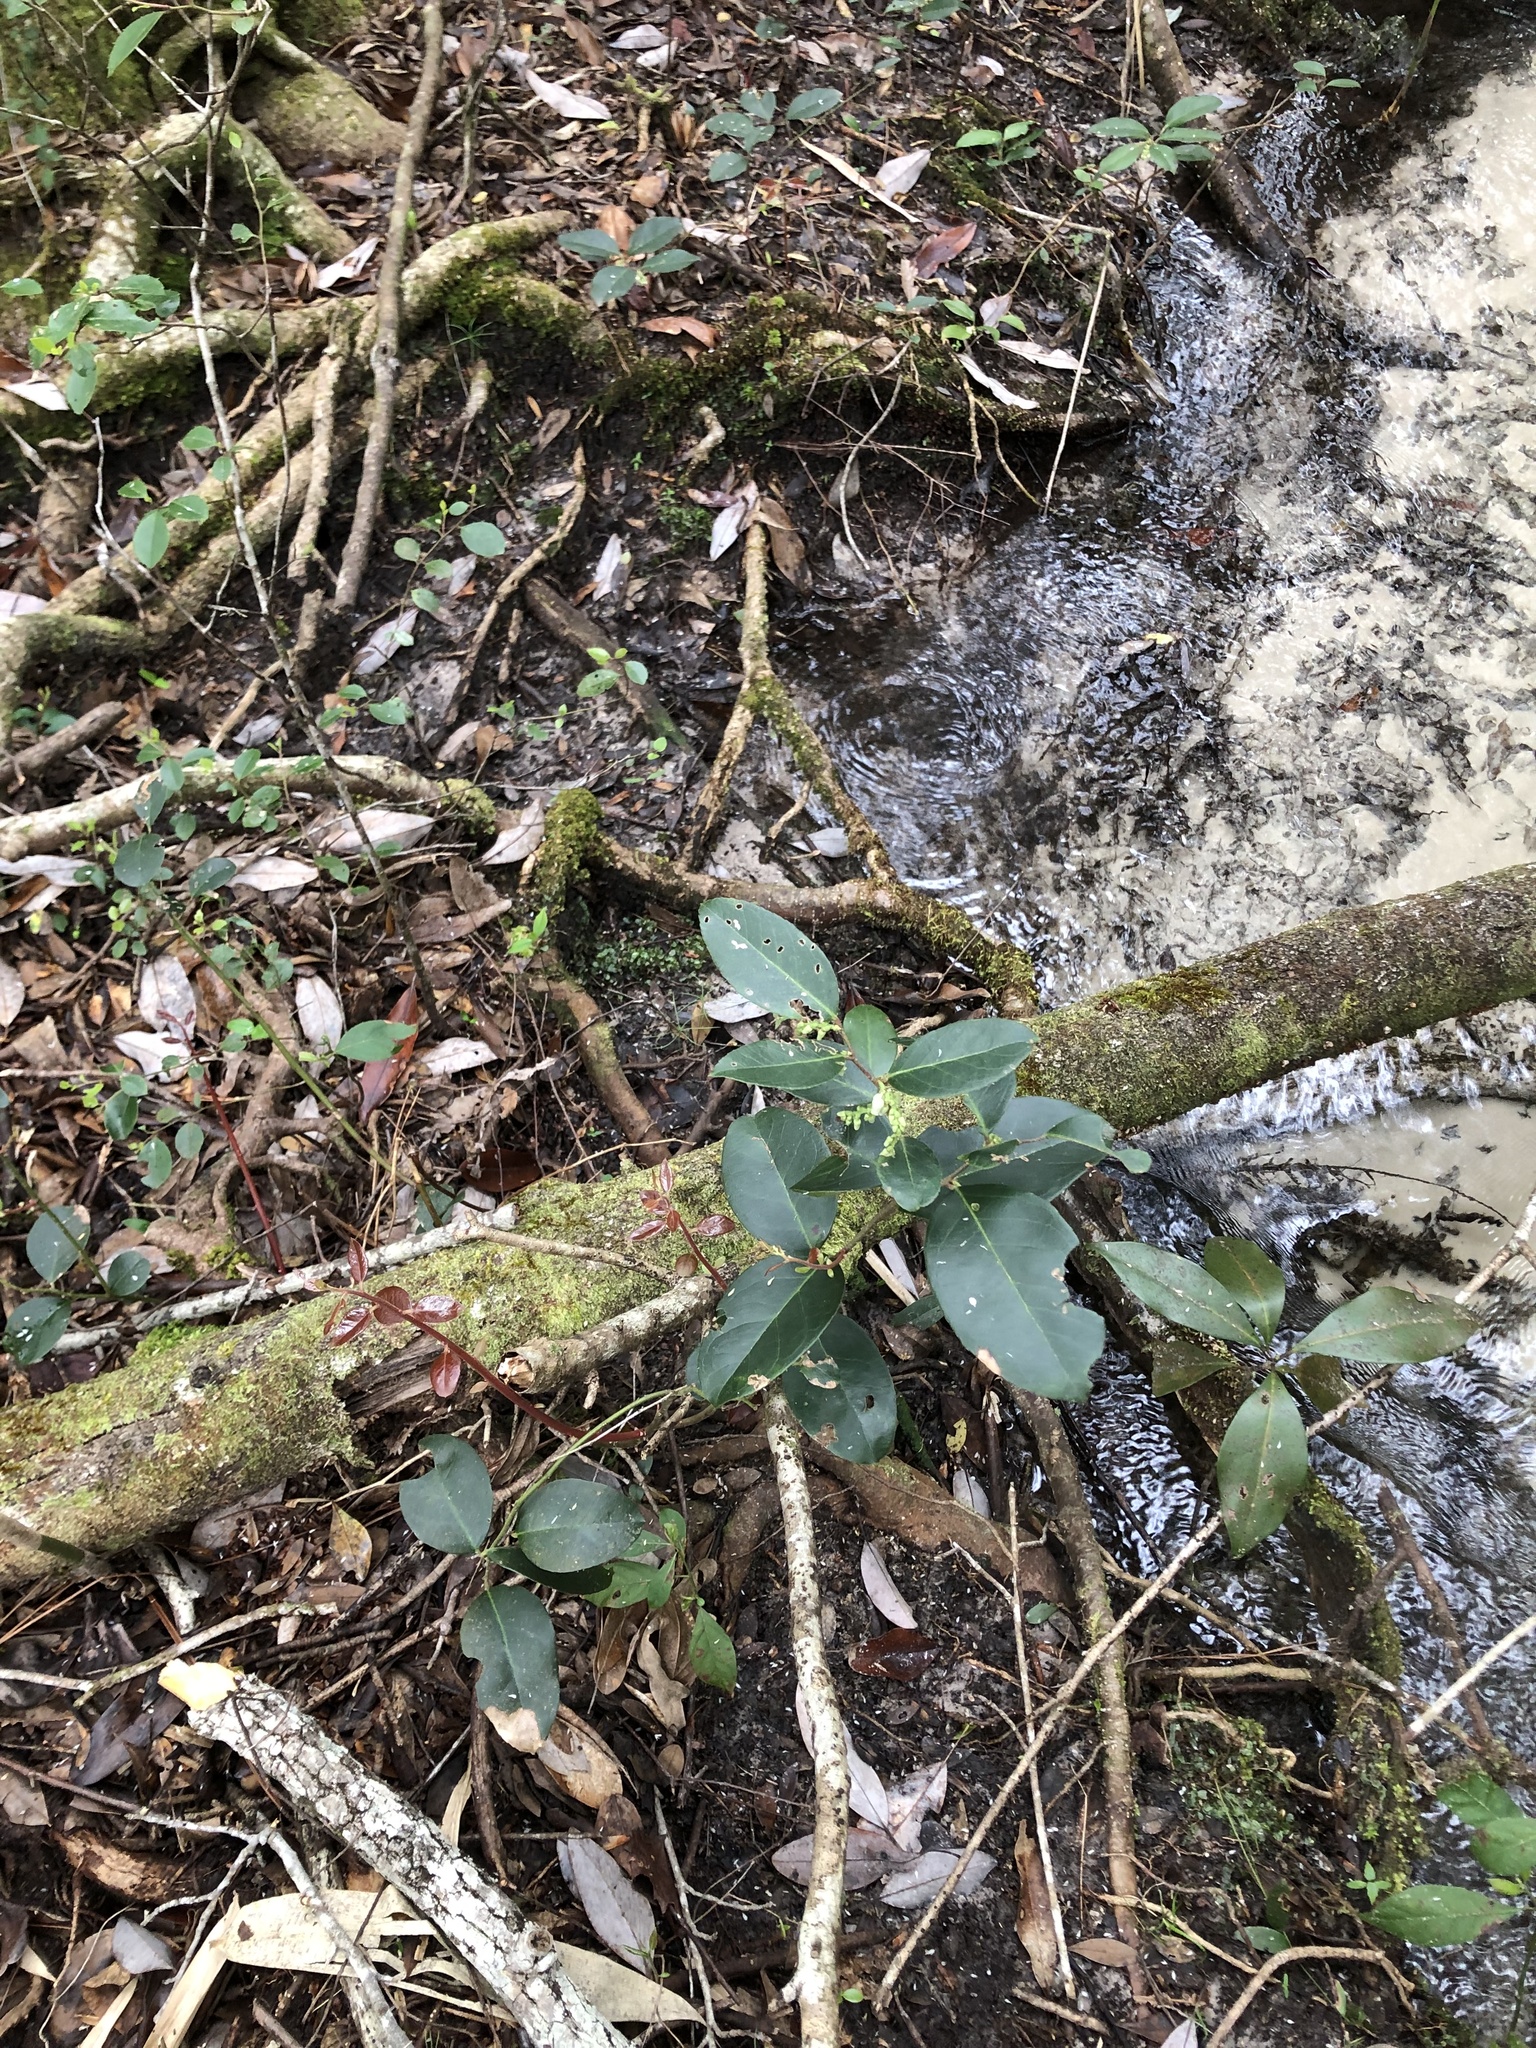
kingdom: Plantae
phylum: Tracheophyta
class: Magnoliopsida
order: Ericales
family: Ericaceae
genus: Leucothoe
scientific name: Leucothoe axillaris
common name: Leucothoe
